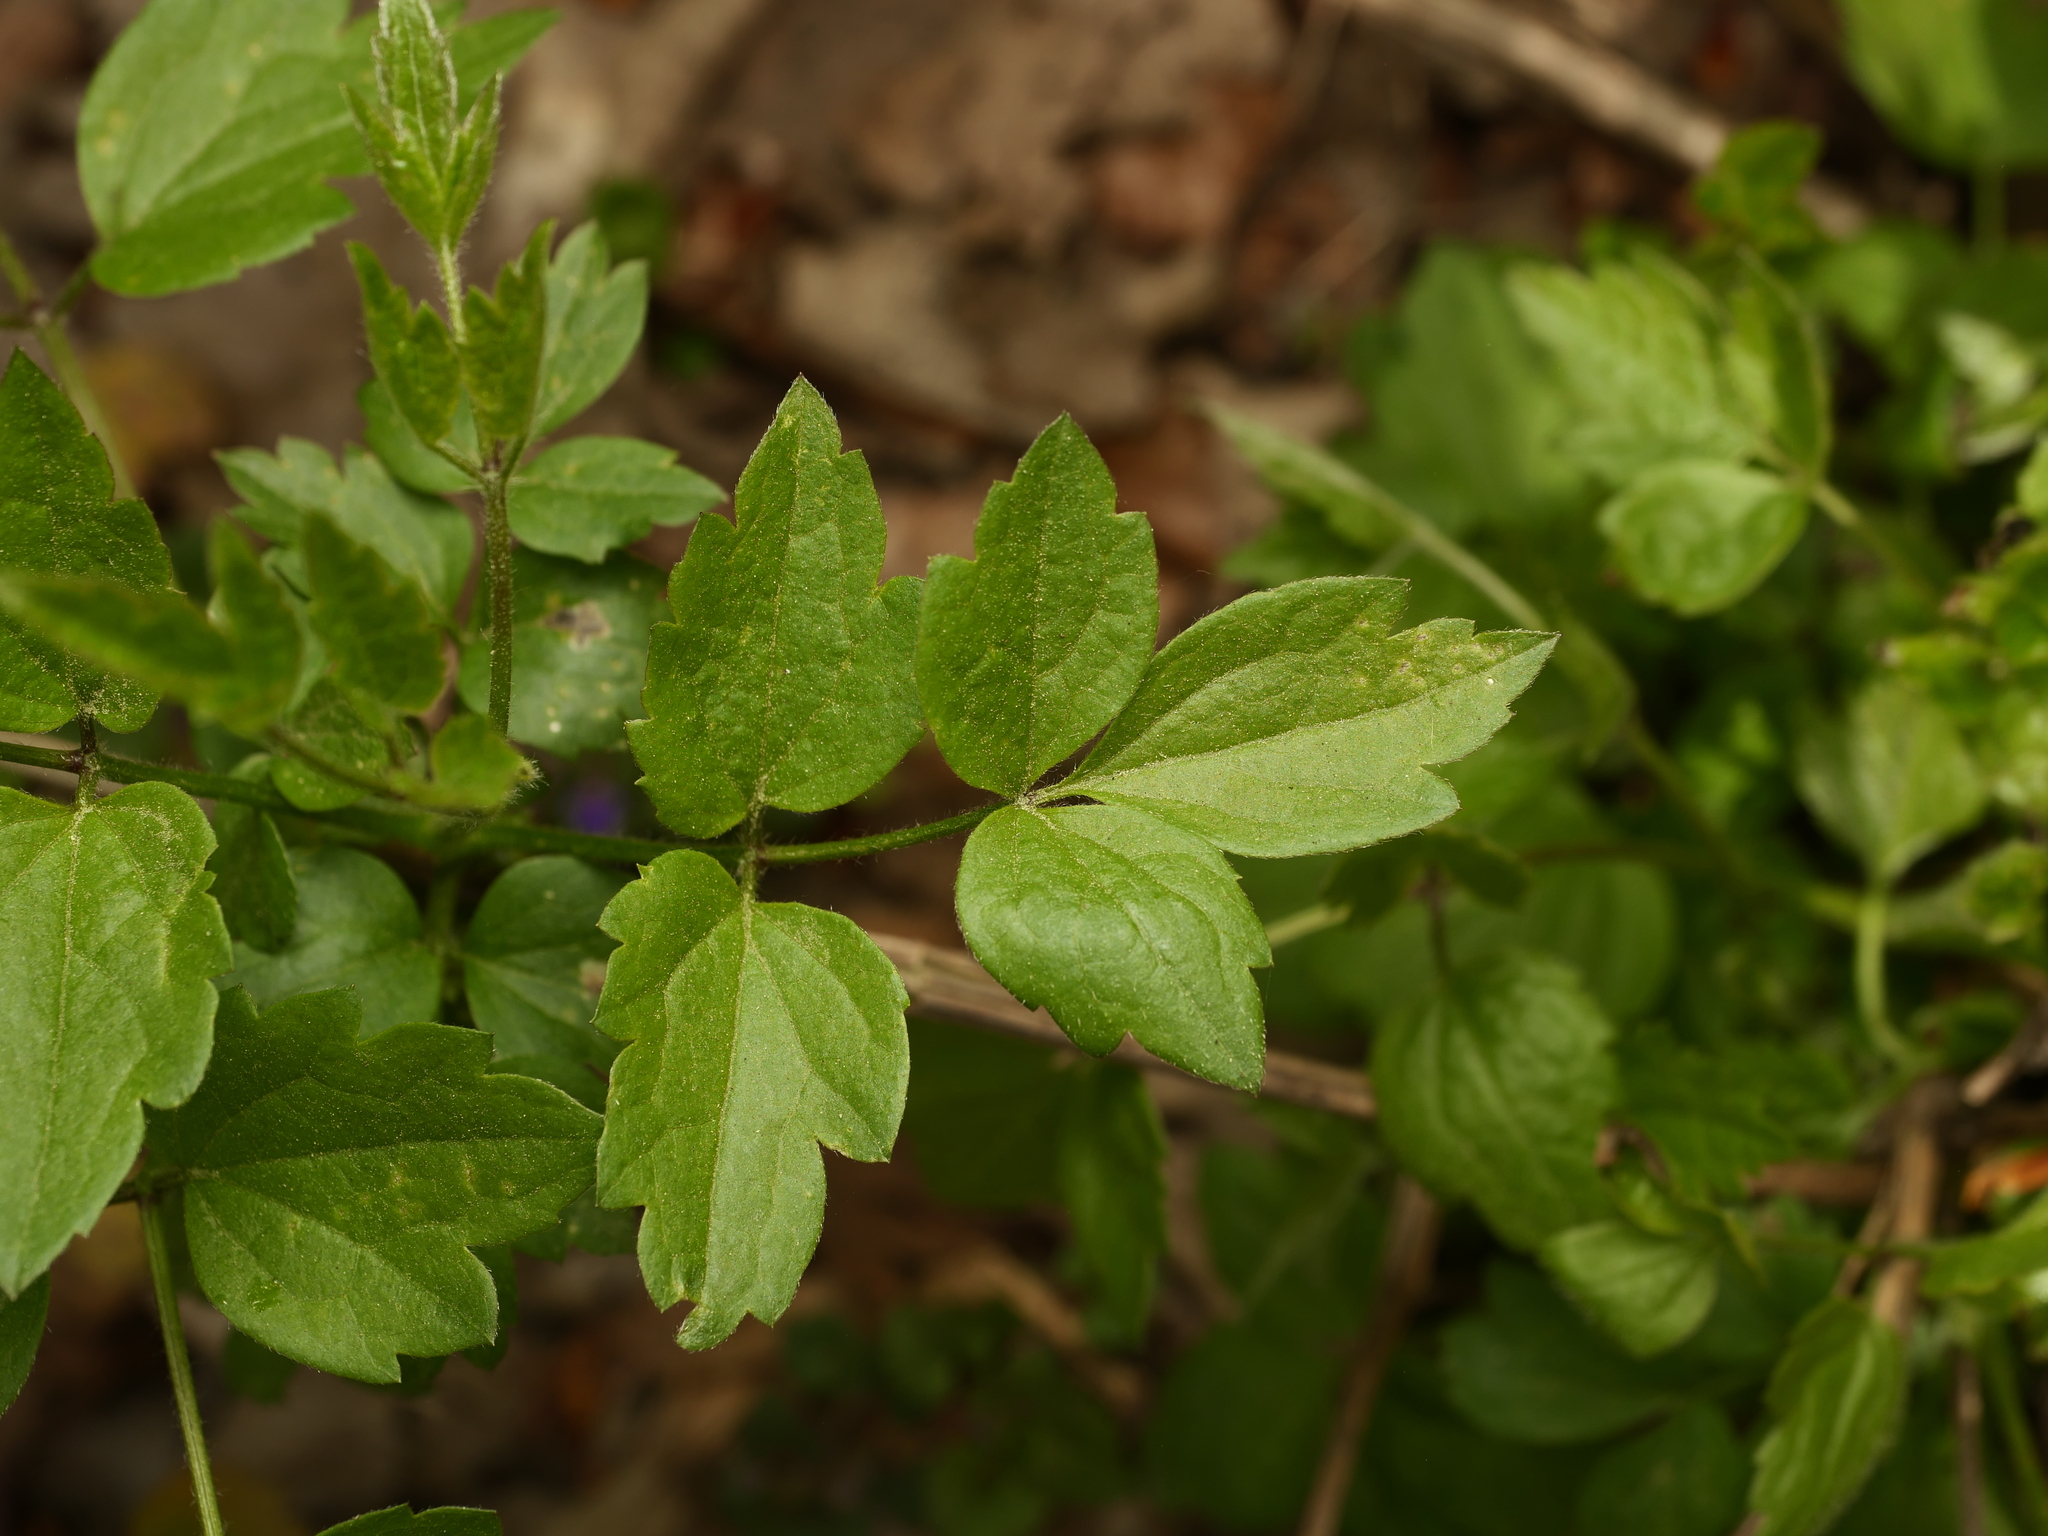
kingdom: Plantae
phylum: Tracheophyta
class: Magnoliopsida
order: Ranunculales
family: Ranunculaceae
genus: Clematis
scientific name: Clematis vitalba
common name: Evergreen clematis
